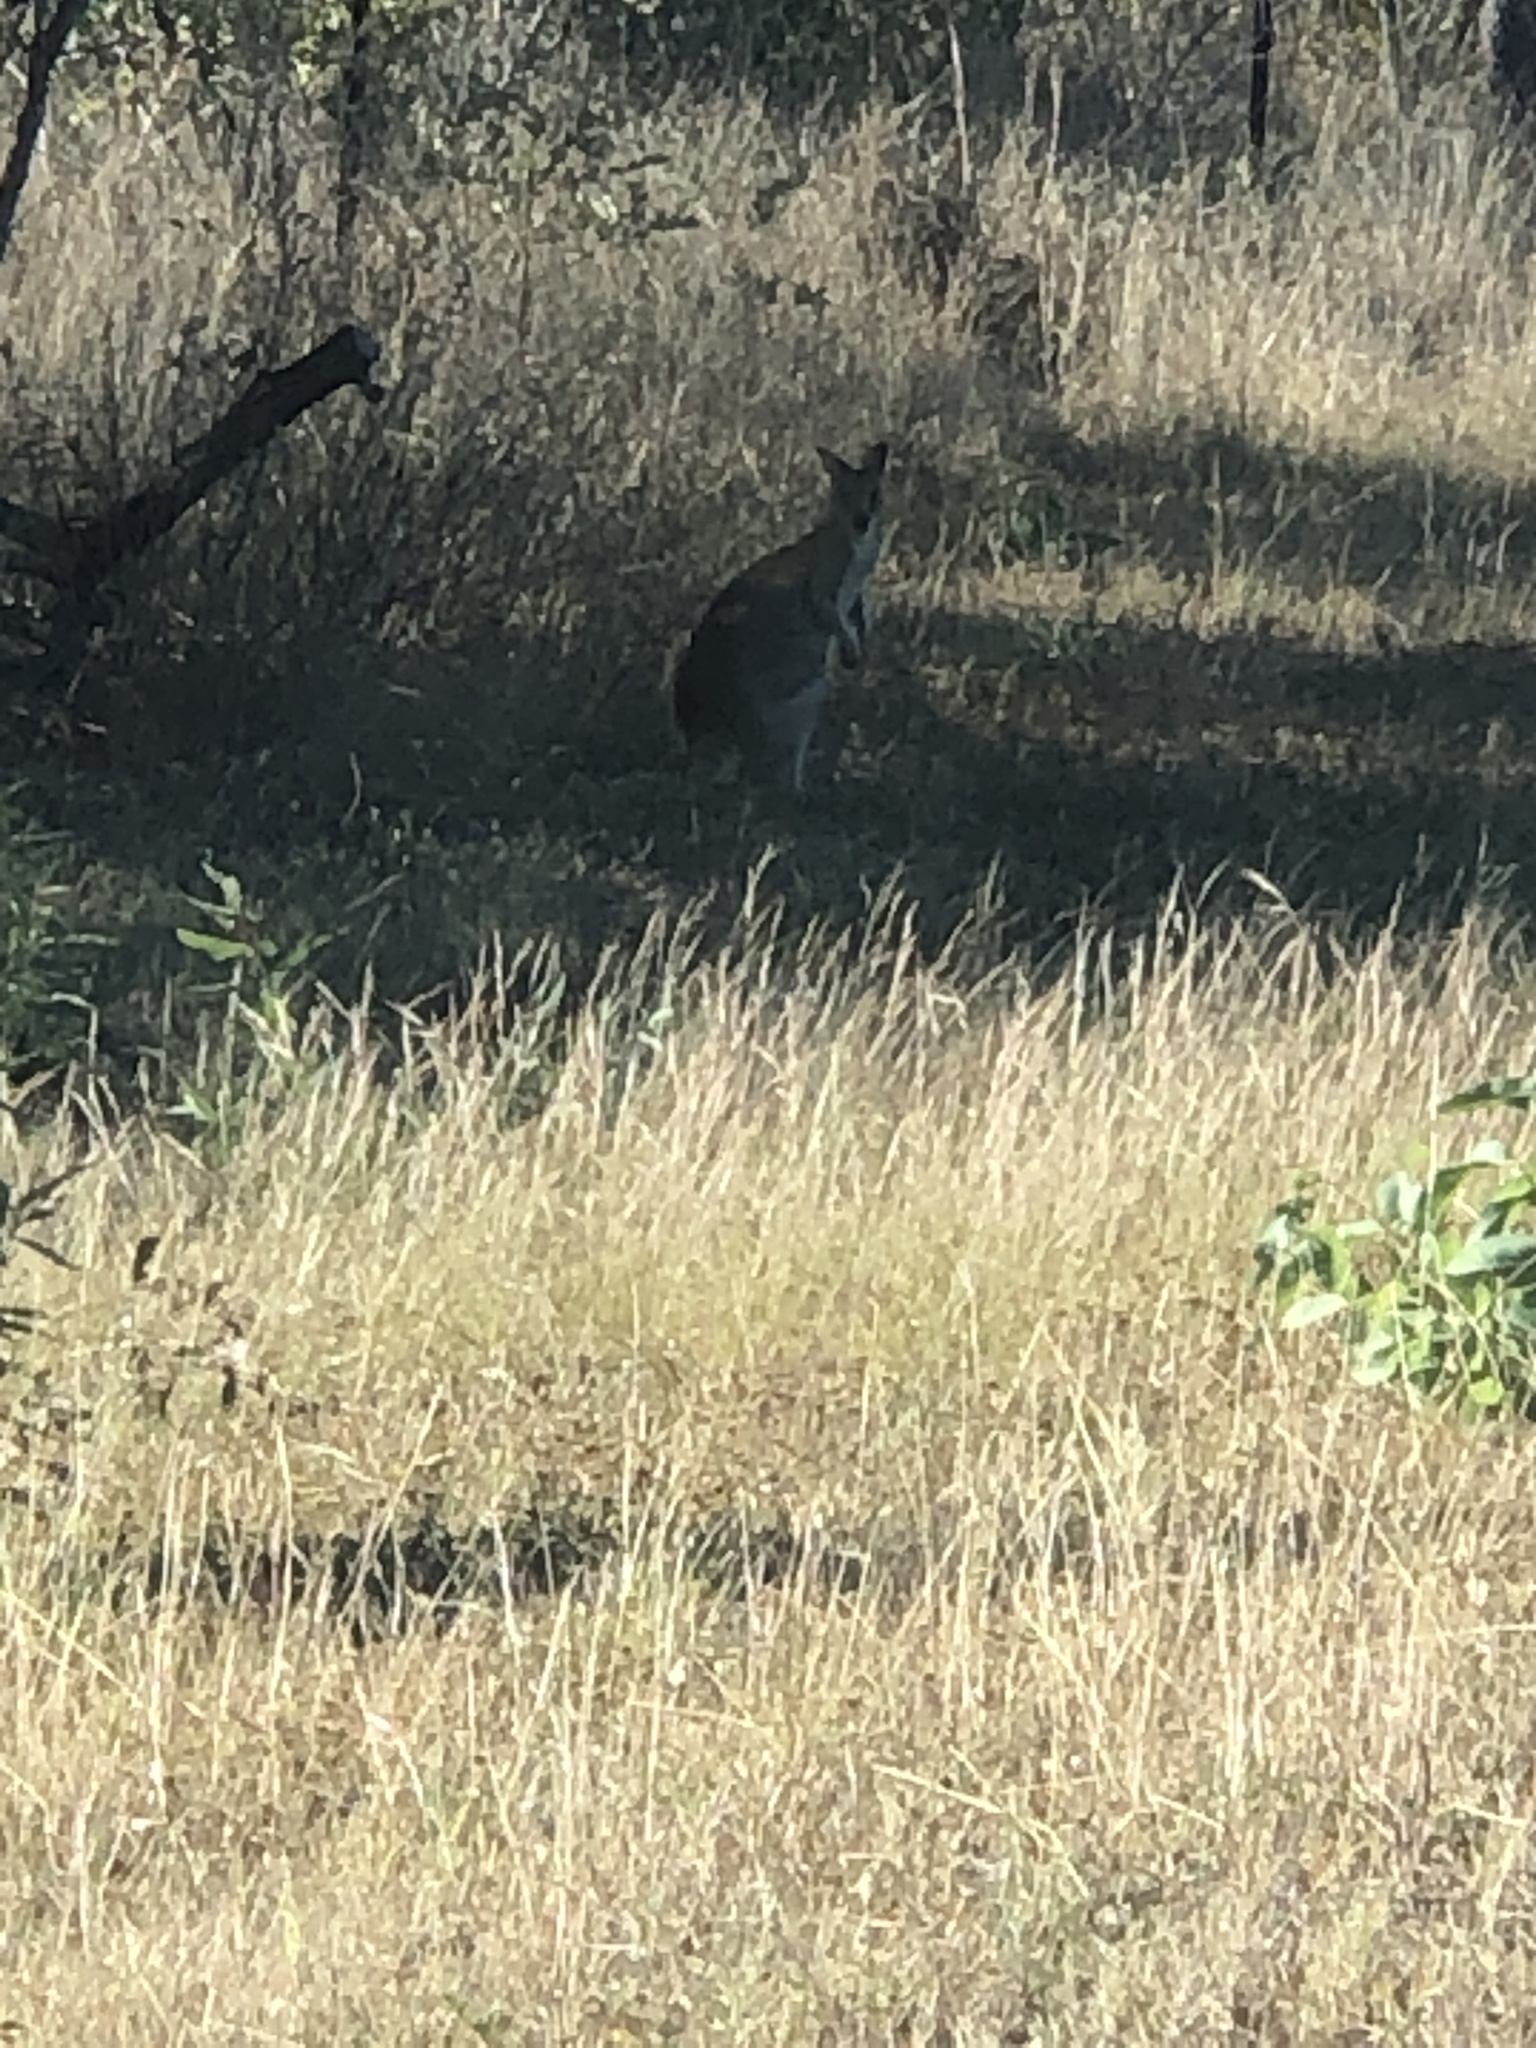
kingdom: Animalia
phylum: Chordata
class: Mammalia
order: Diprotodontia
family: Macropodidae
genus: Macropus
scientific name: Macropus agilis
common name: Agile wallaby
